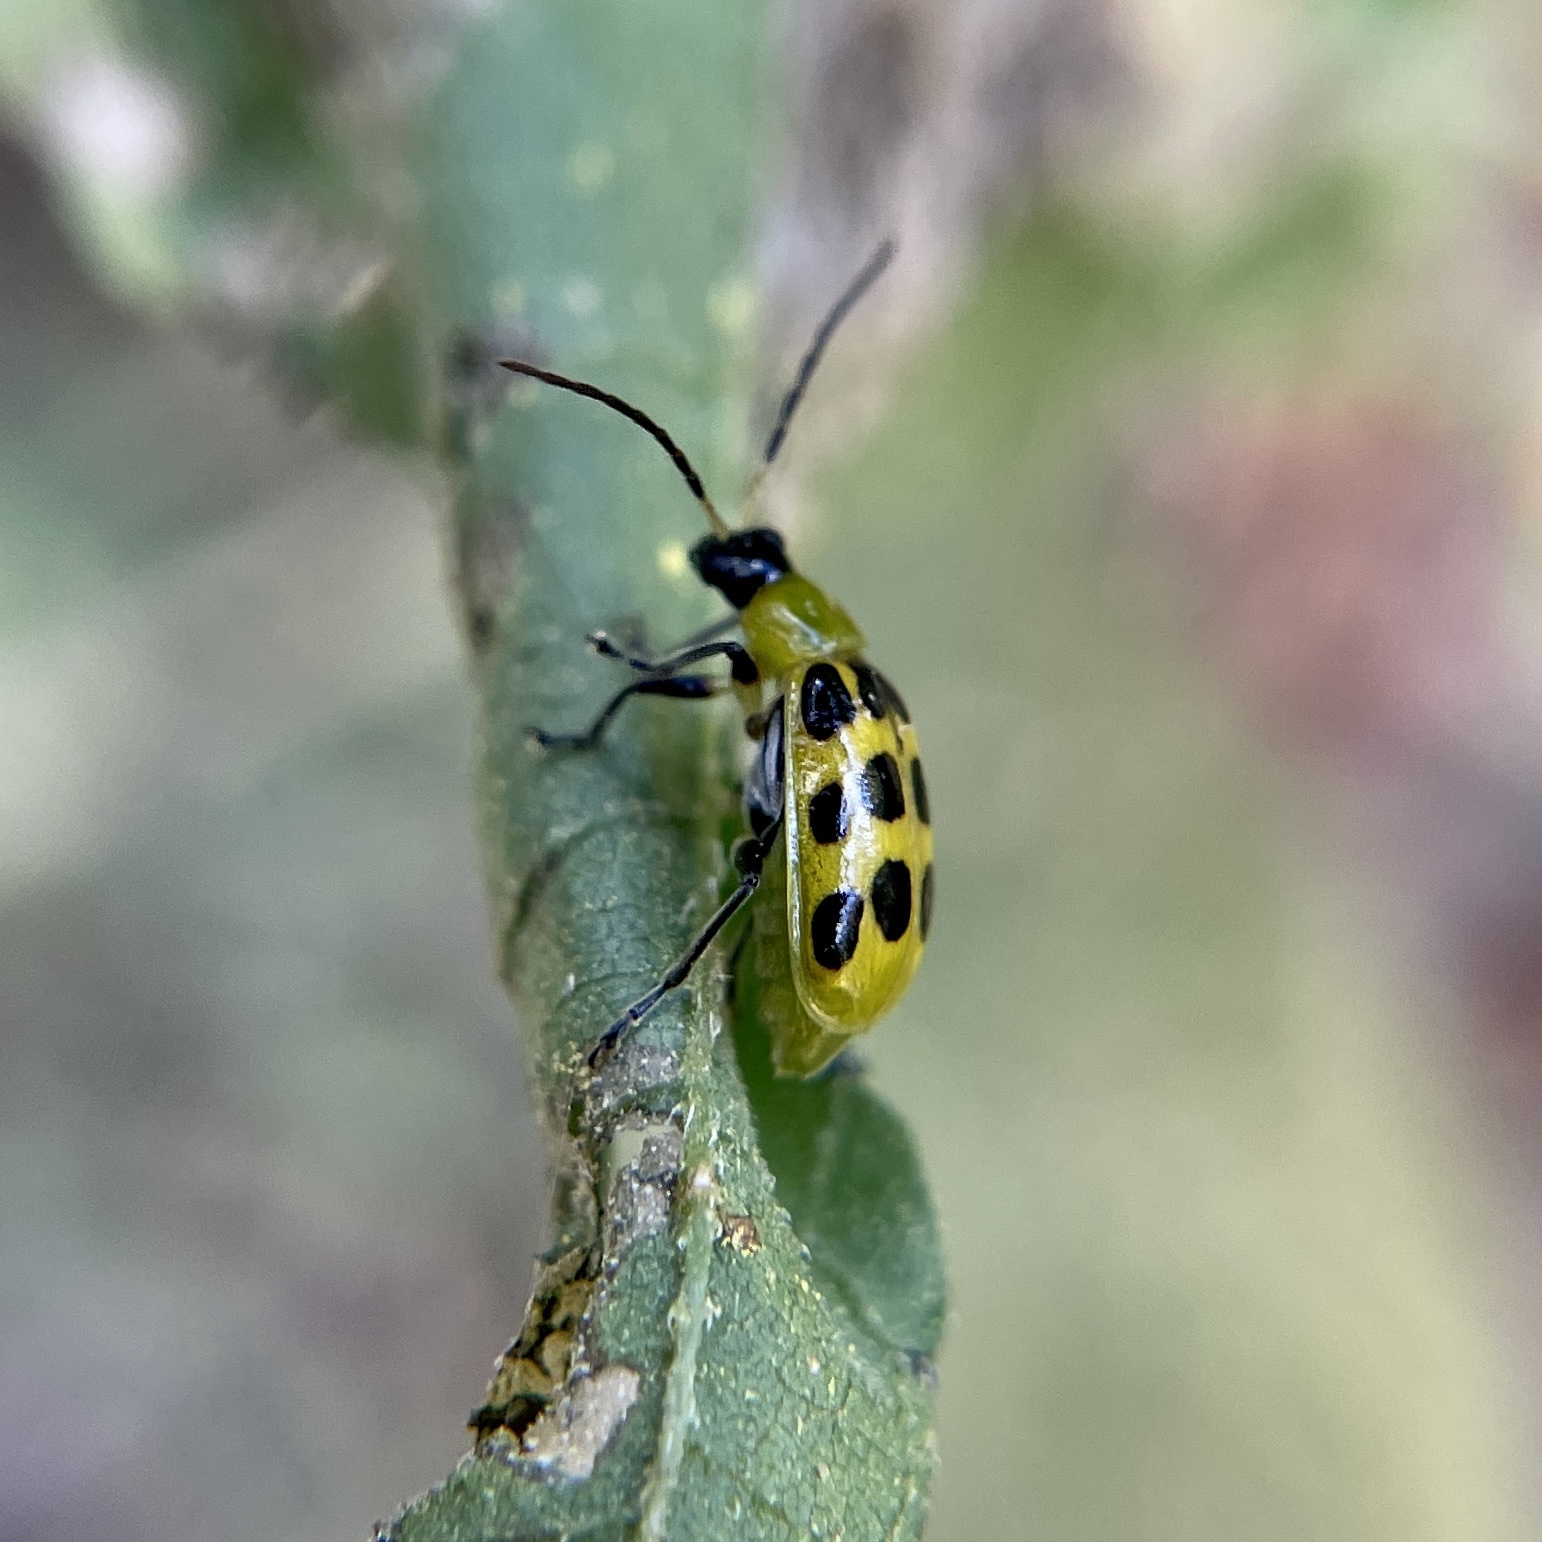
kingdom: Animalia
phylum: Arthropoda
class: Insecta
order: Coleoptera
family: Chrysomelidae
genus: Diabrotica
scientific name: Diabrotica undecimpunctata
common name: Spotted cucumber beetle
